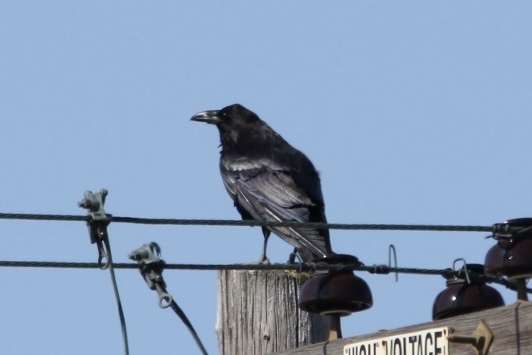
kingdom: Animalia
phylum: Chordata
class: Aves
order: Passeriformes
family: Corvidae
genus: Corvus
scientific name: Corvus corax
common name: Common raven
